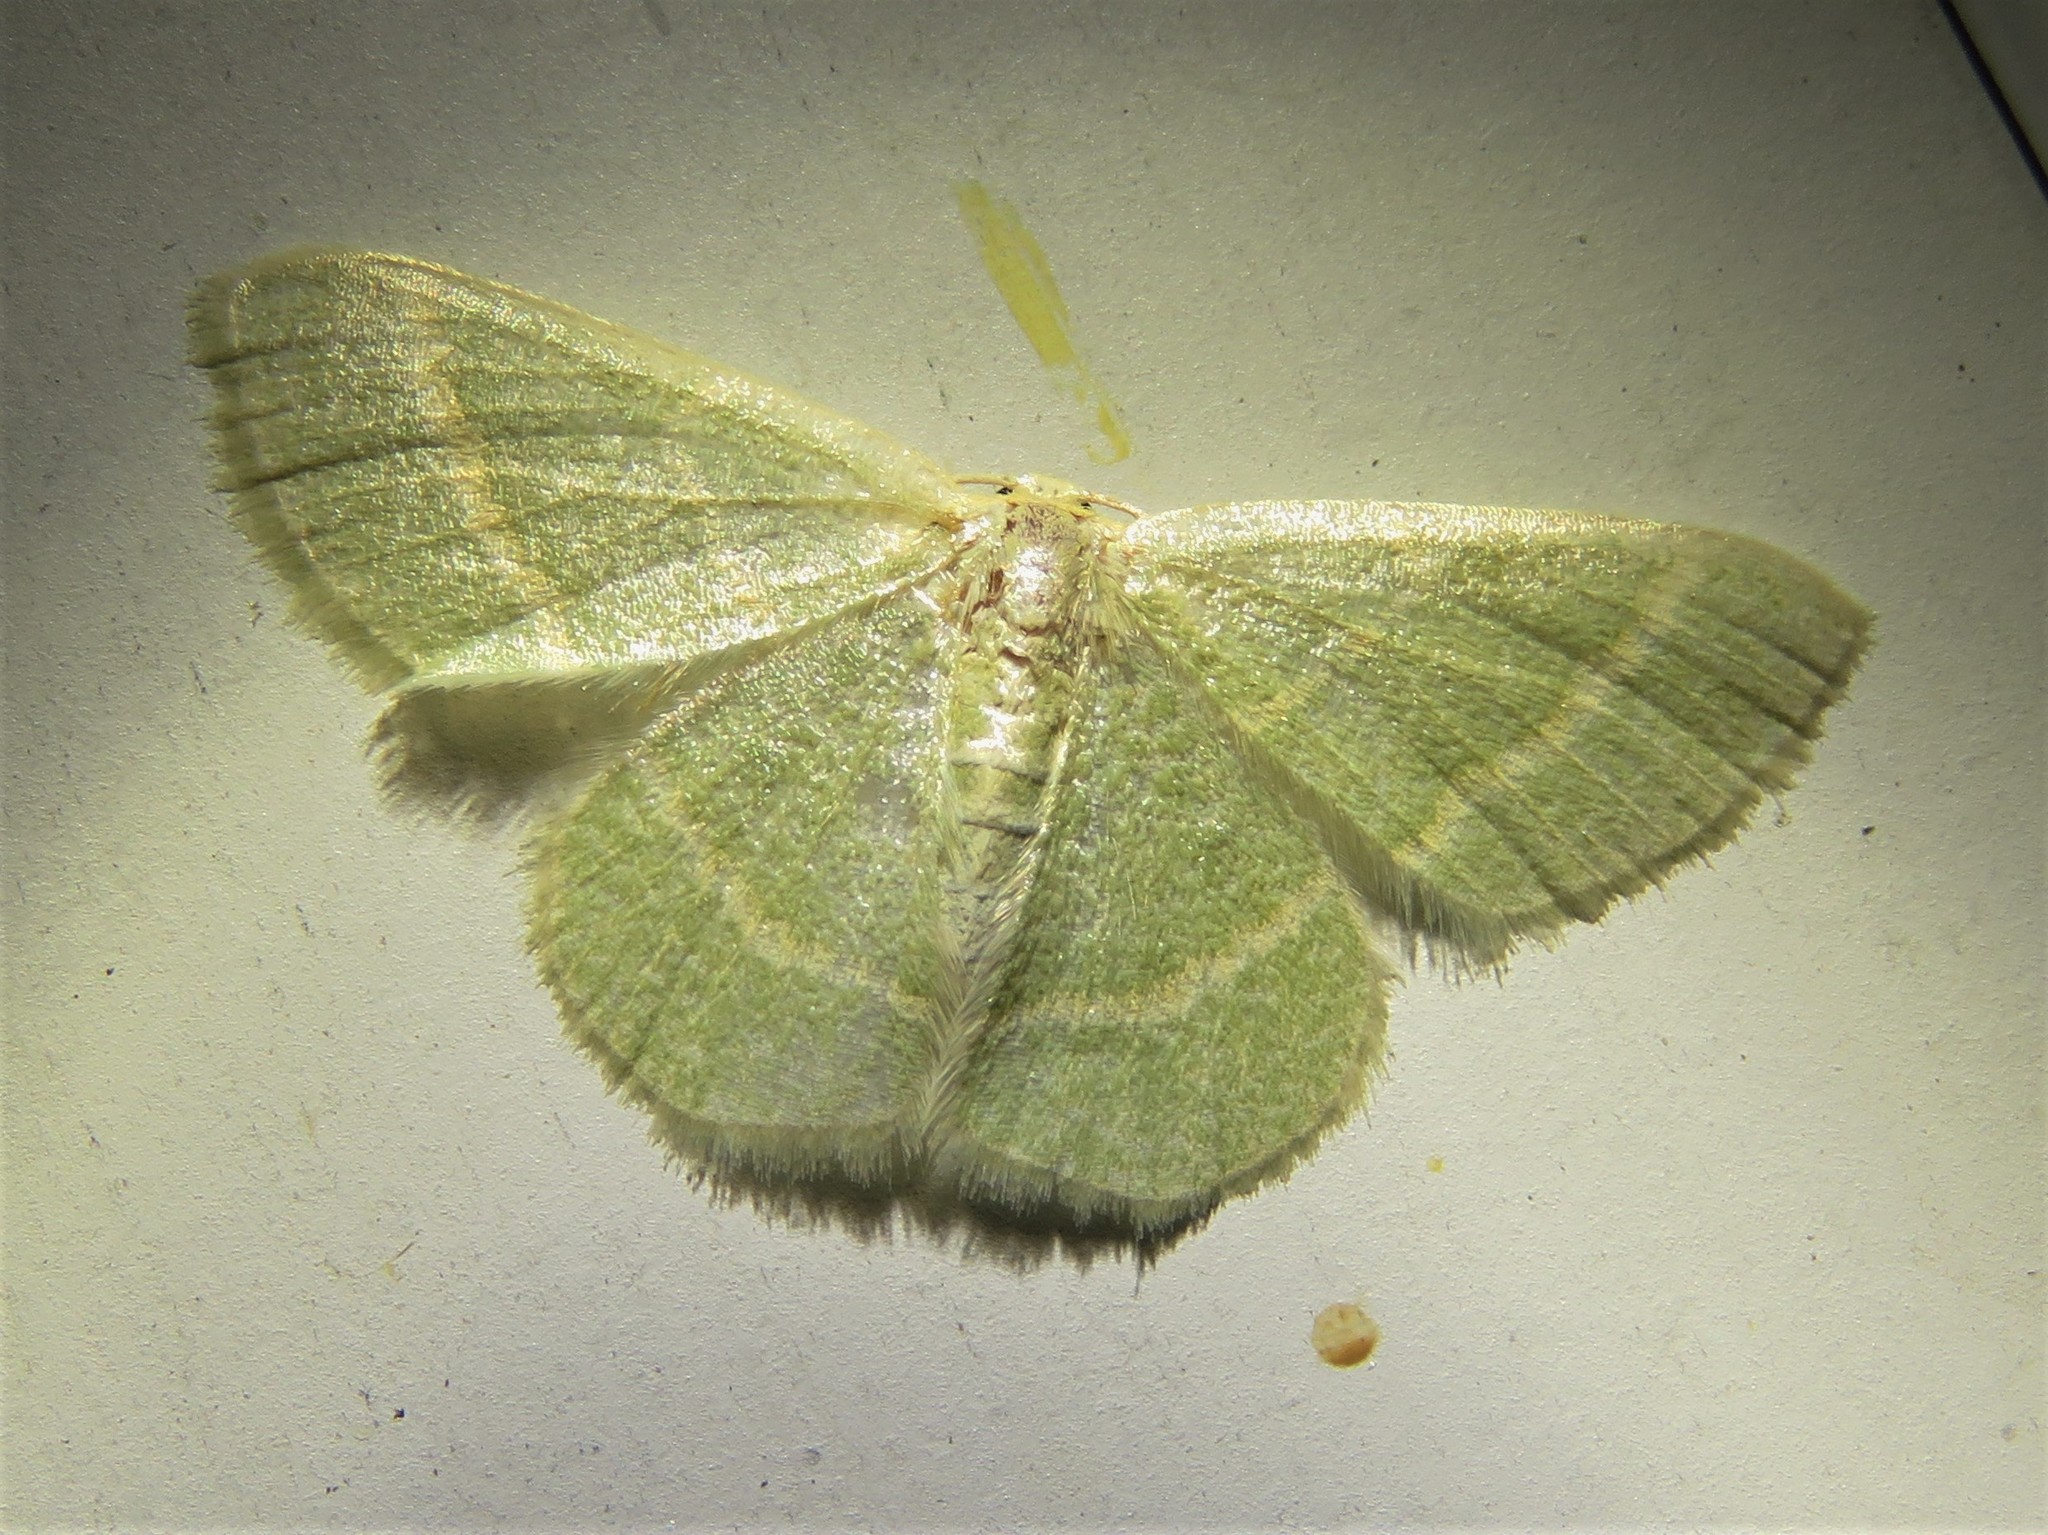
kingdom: Animalia
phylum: Arthropoda
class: Insecta
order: Lepidoptera
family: Geometridae
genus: Chlorochlamys
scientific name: Chlorochlamys chloroleucaria
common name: Blackberry looper
